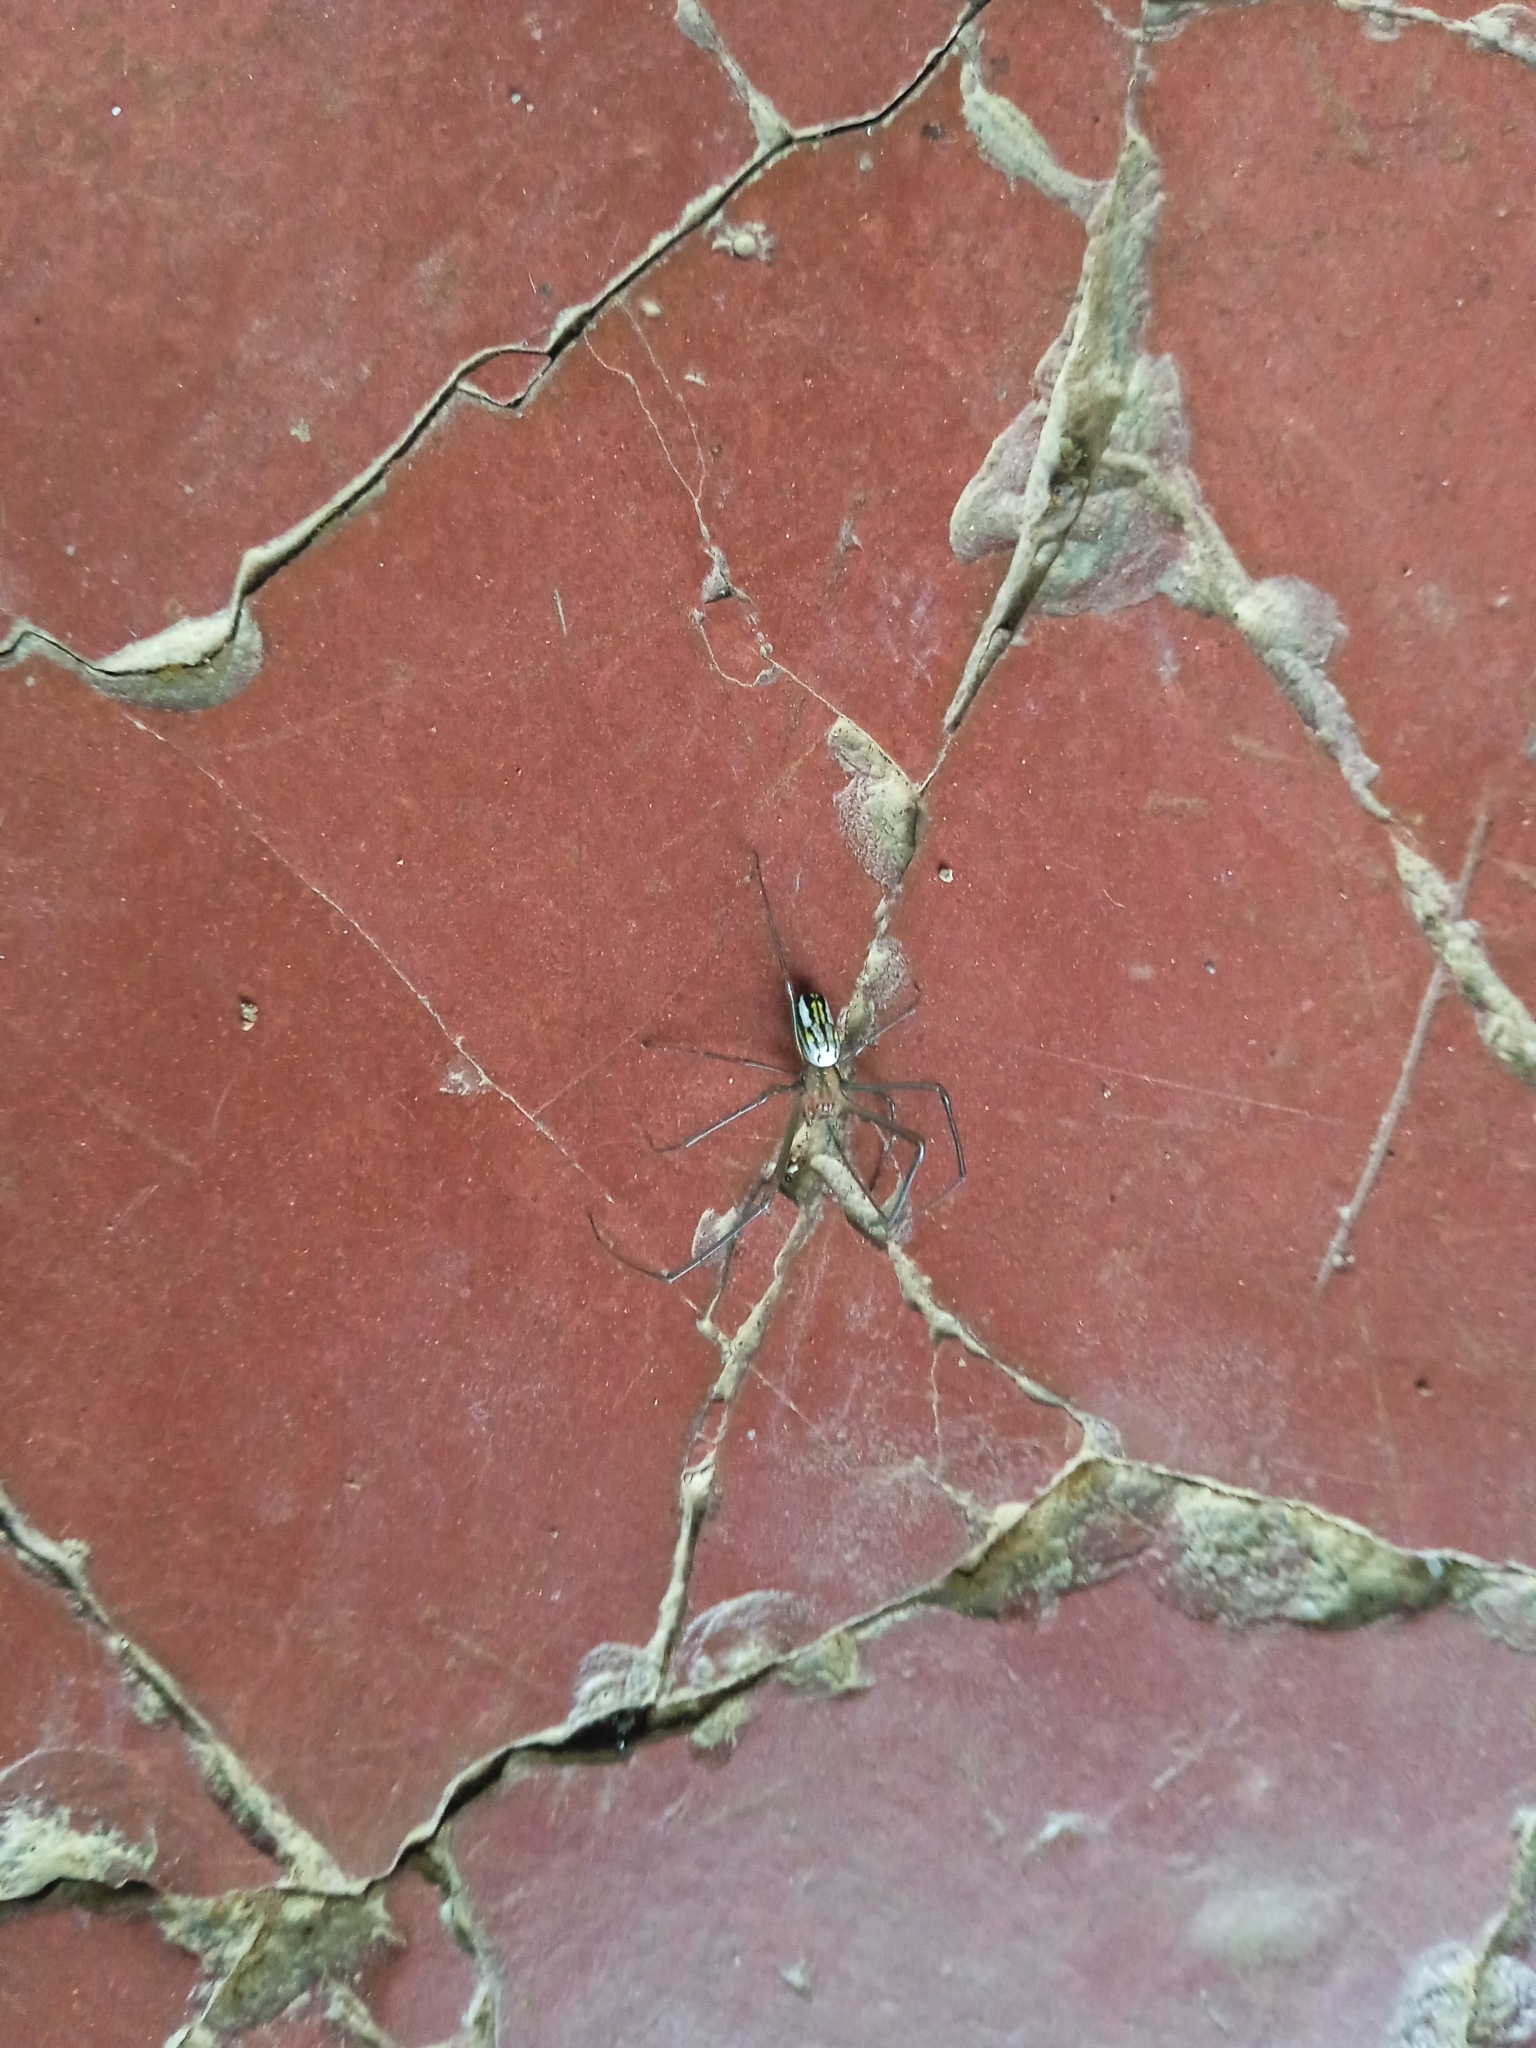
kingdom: Animalia
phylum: Arthropoda
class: Arachnida
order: Araneae
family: Tetragnathidae
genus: Leucauge
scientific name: Leucauge argyra
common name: Longjawed orb weavers
